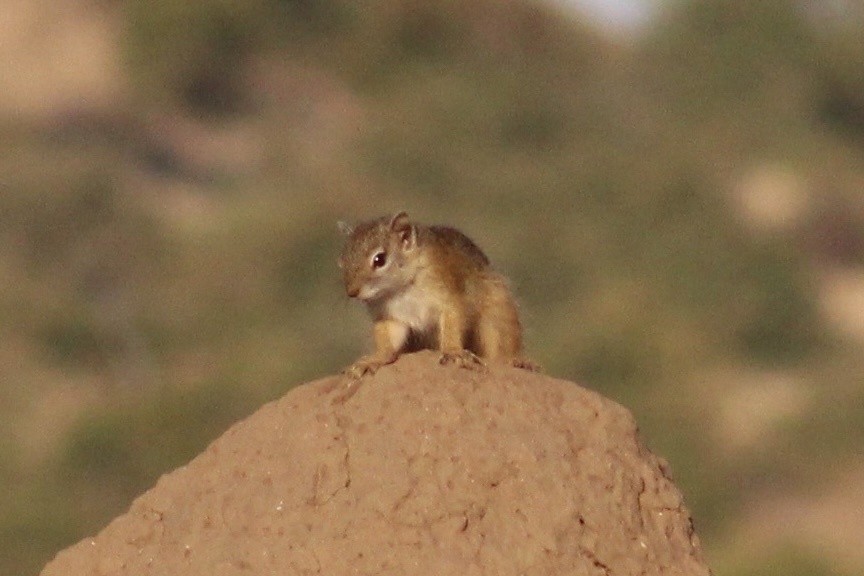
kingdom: Animalia
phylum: Chordata
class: Mammalia
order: Rodentia
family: Sciuridae
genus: Paraxerus
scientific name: Paraxerus cepapi
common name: Smith's bush squirrel
